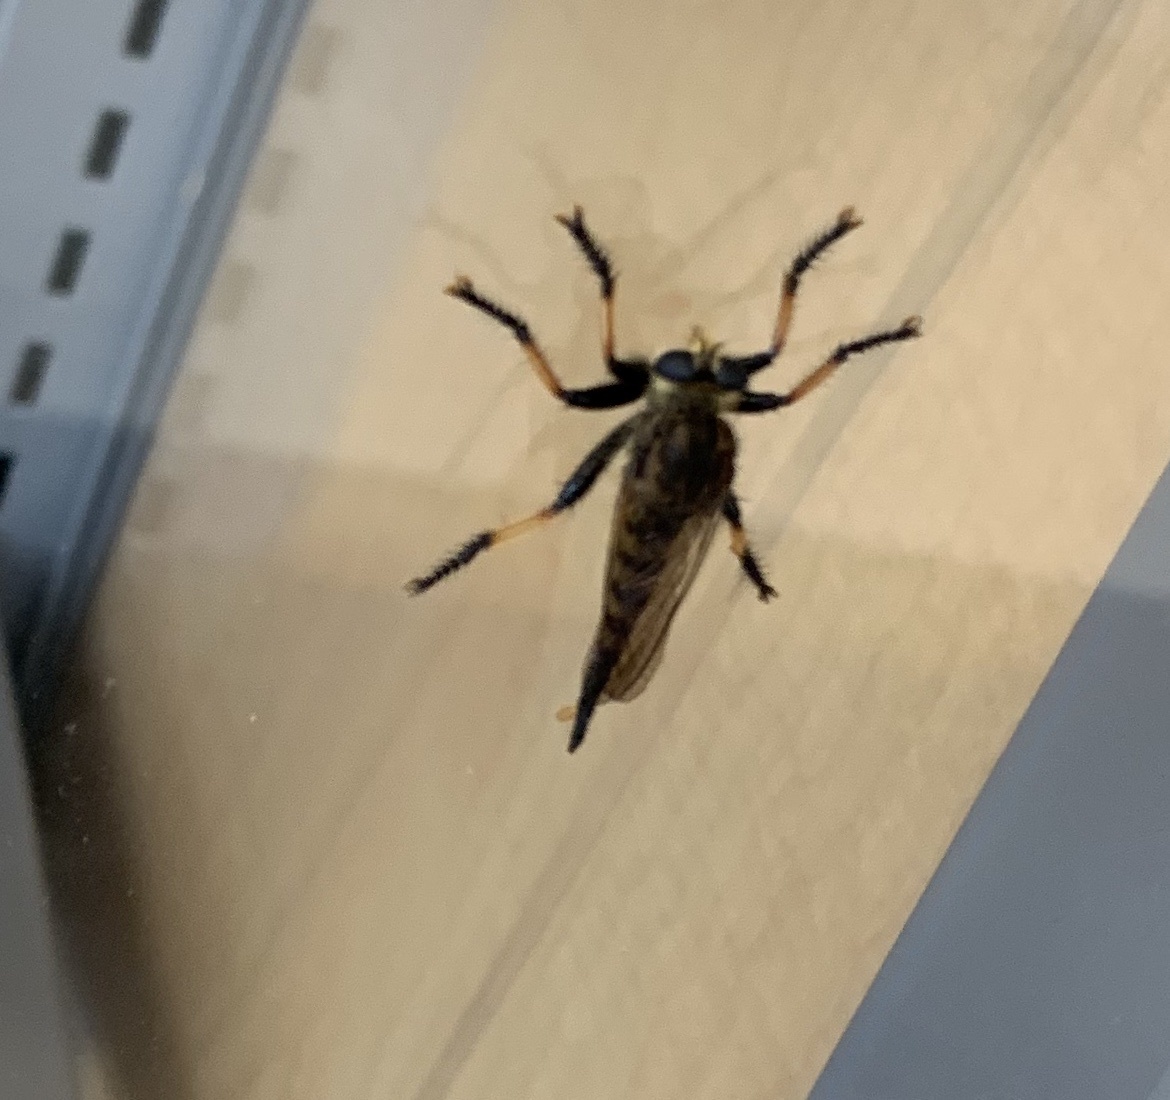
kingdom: Animalia
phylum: Arthropoda
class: Insecta
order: Diptera
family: Asilidae
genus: Promachus
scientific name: Promachus rufipes
